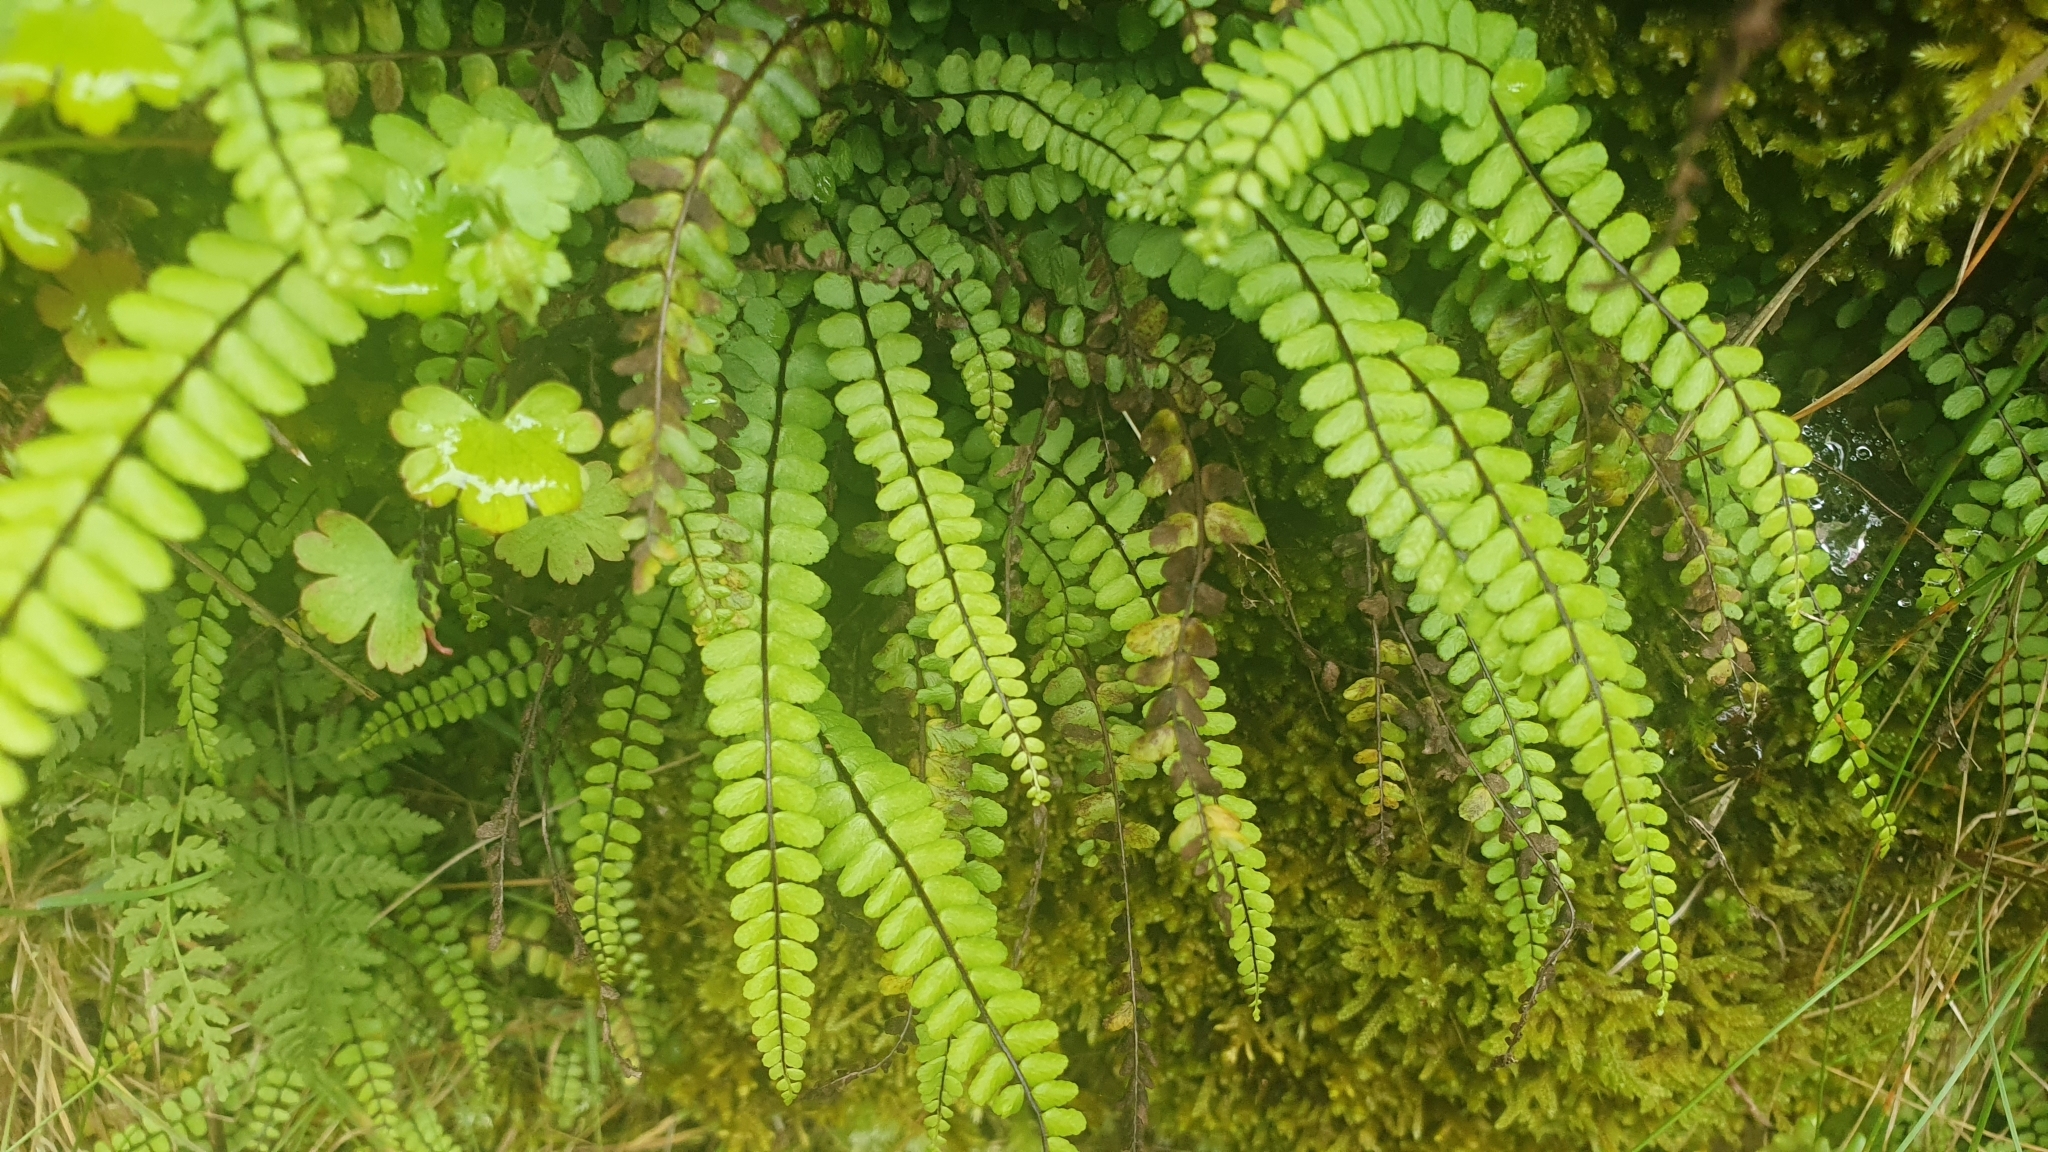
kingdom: Plantae
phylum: Tracheophyta
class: Polypodiopsida
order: Polypodiales
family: Aspleniaceae
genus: Asplenium
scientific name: Asplenium trichomanes
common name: Maidenhair spleenwort
